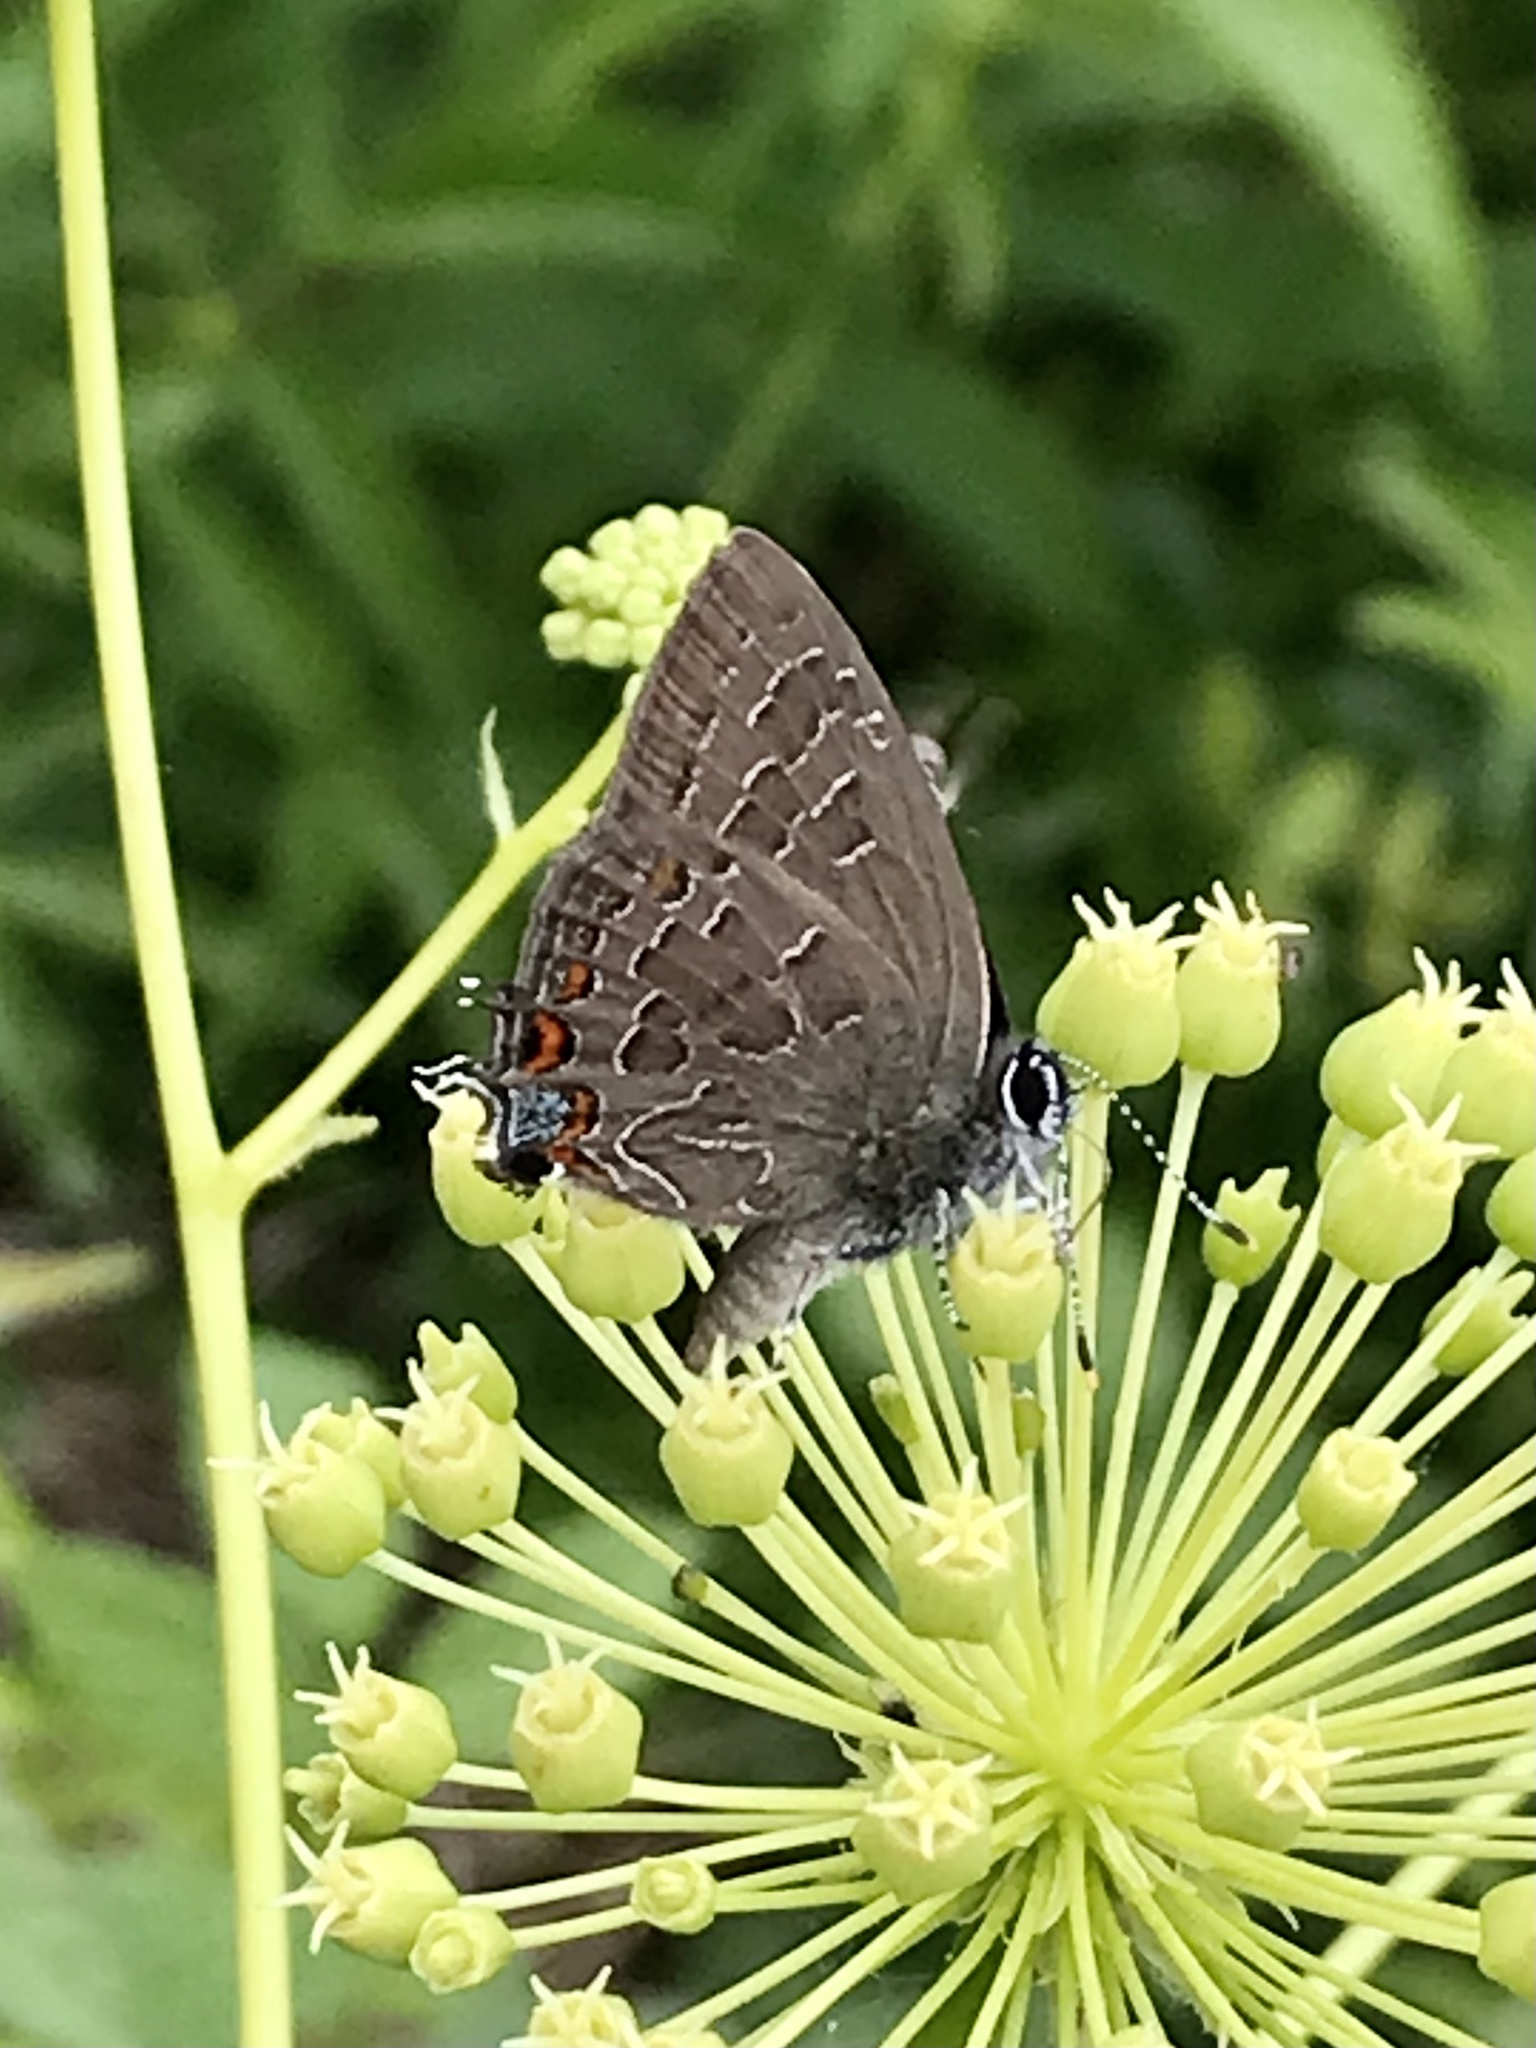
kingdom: Animalia
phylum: Arthropoda
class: Insecta
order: Lepidoptera
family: Lycaenidae
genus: Satyrium
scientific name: Satyrium liparops
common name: Striped hairstreak
